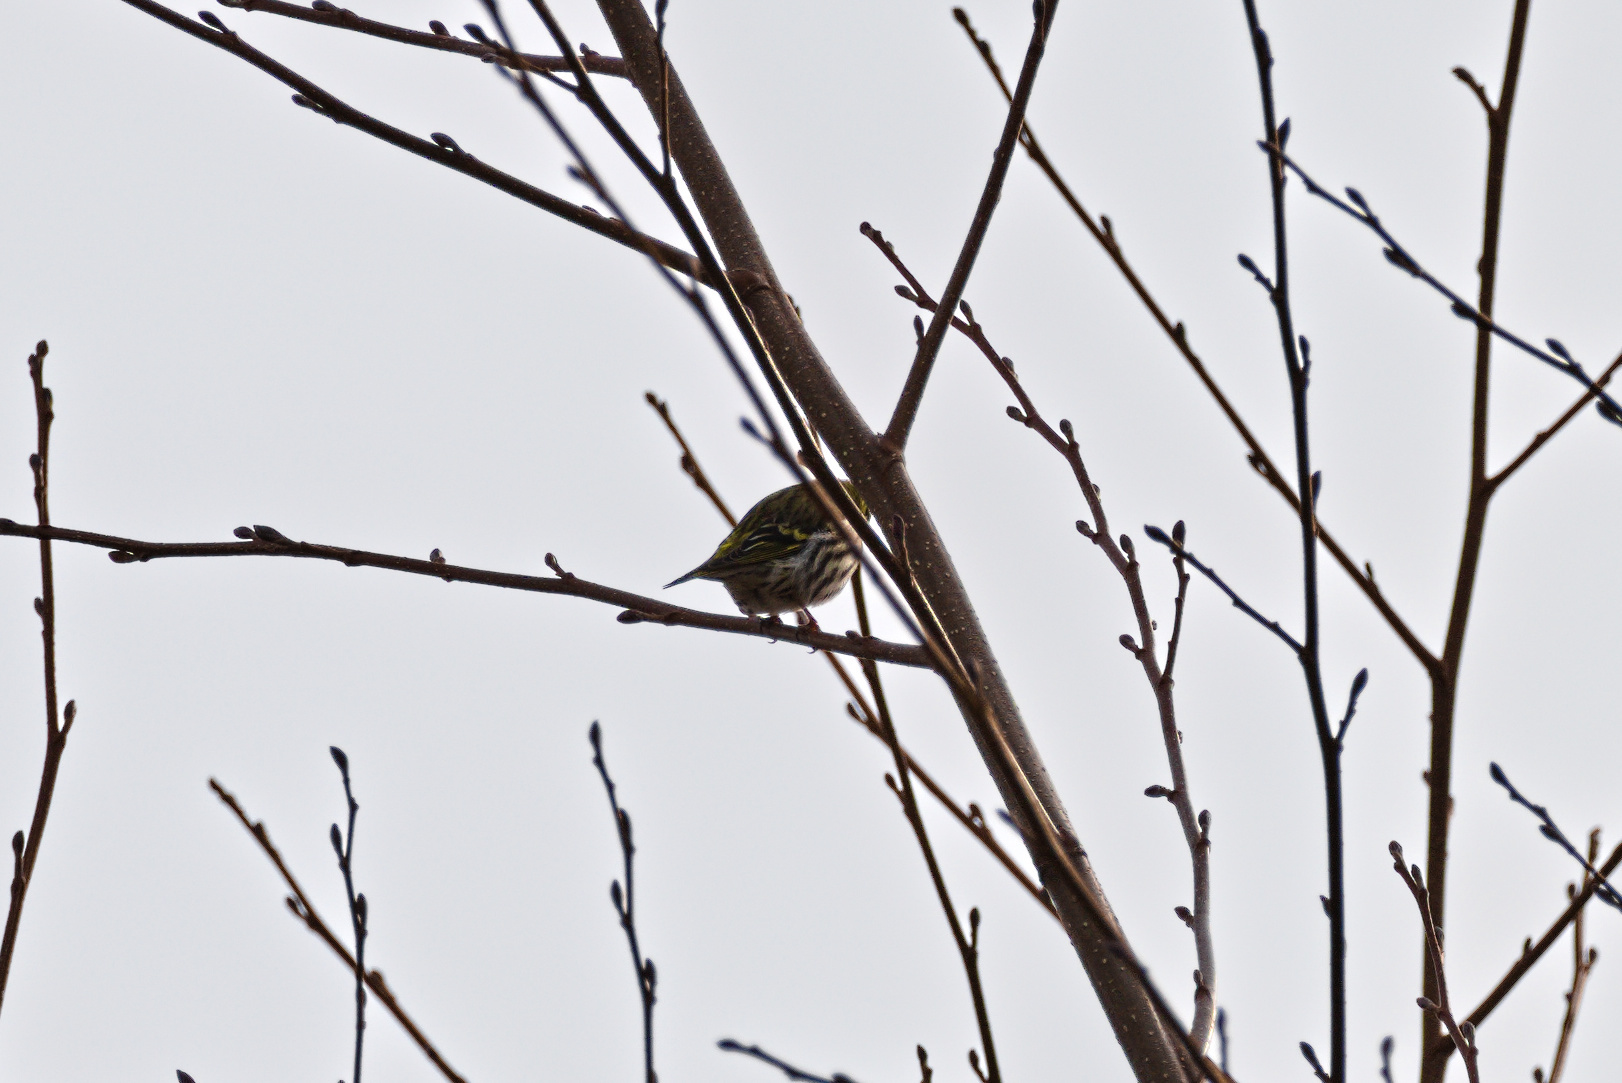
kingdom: Animalia
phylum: Chordata
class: Aves
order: Passeriformes
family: Fringillidae
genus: Spinus
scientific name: Spinus spinus
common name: Eurasian siskin
